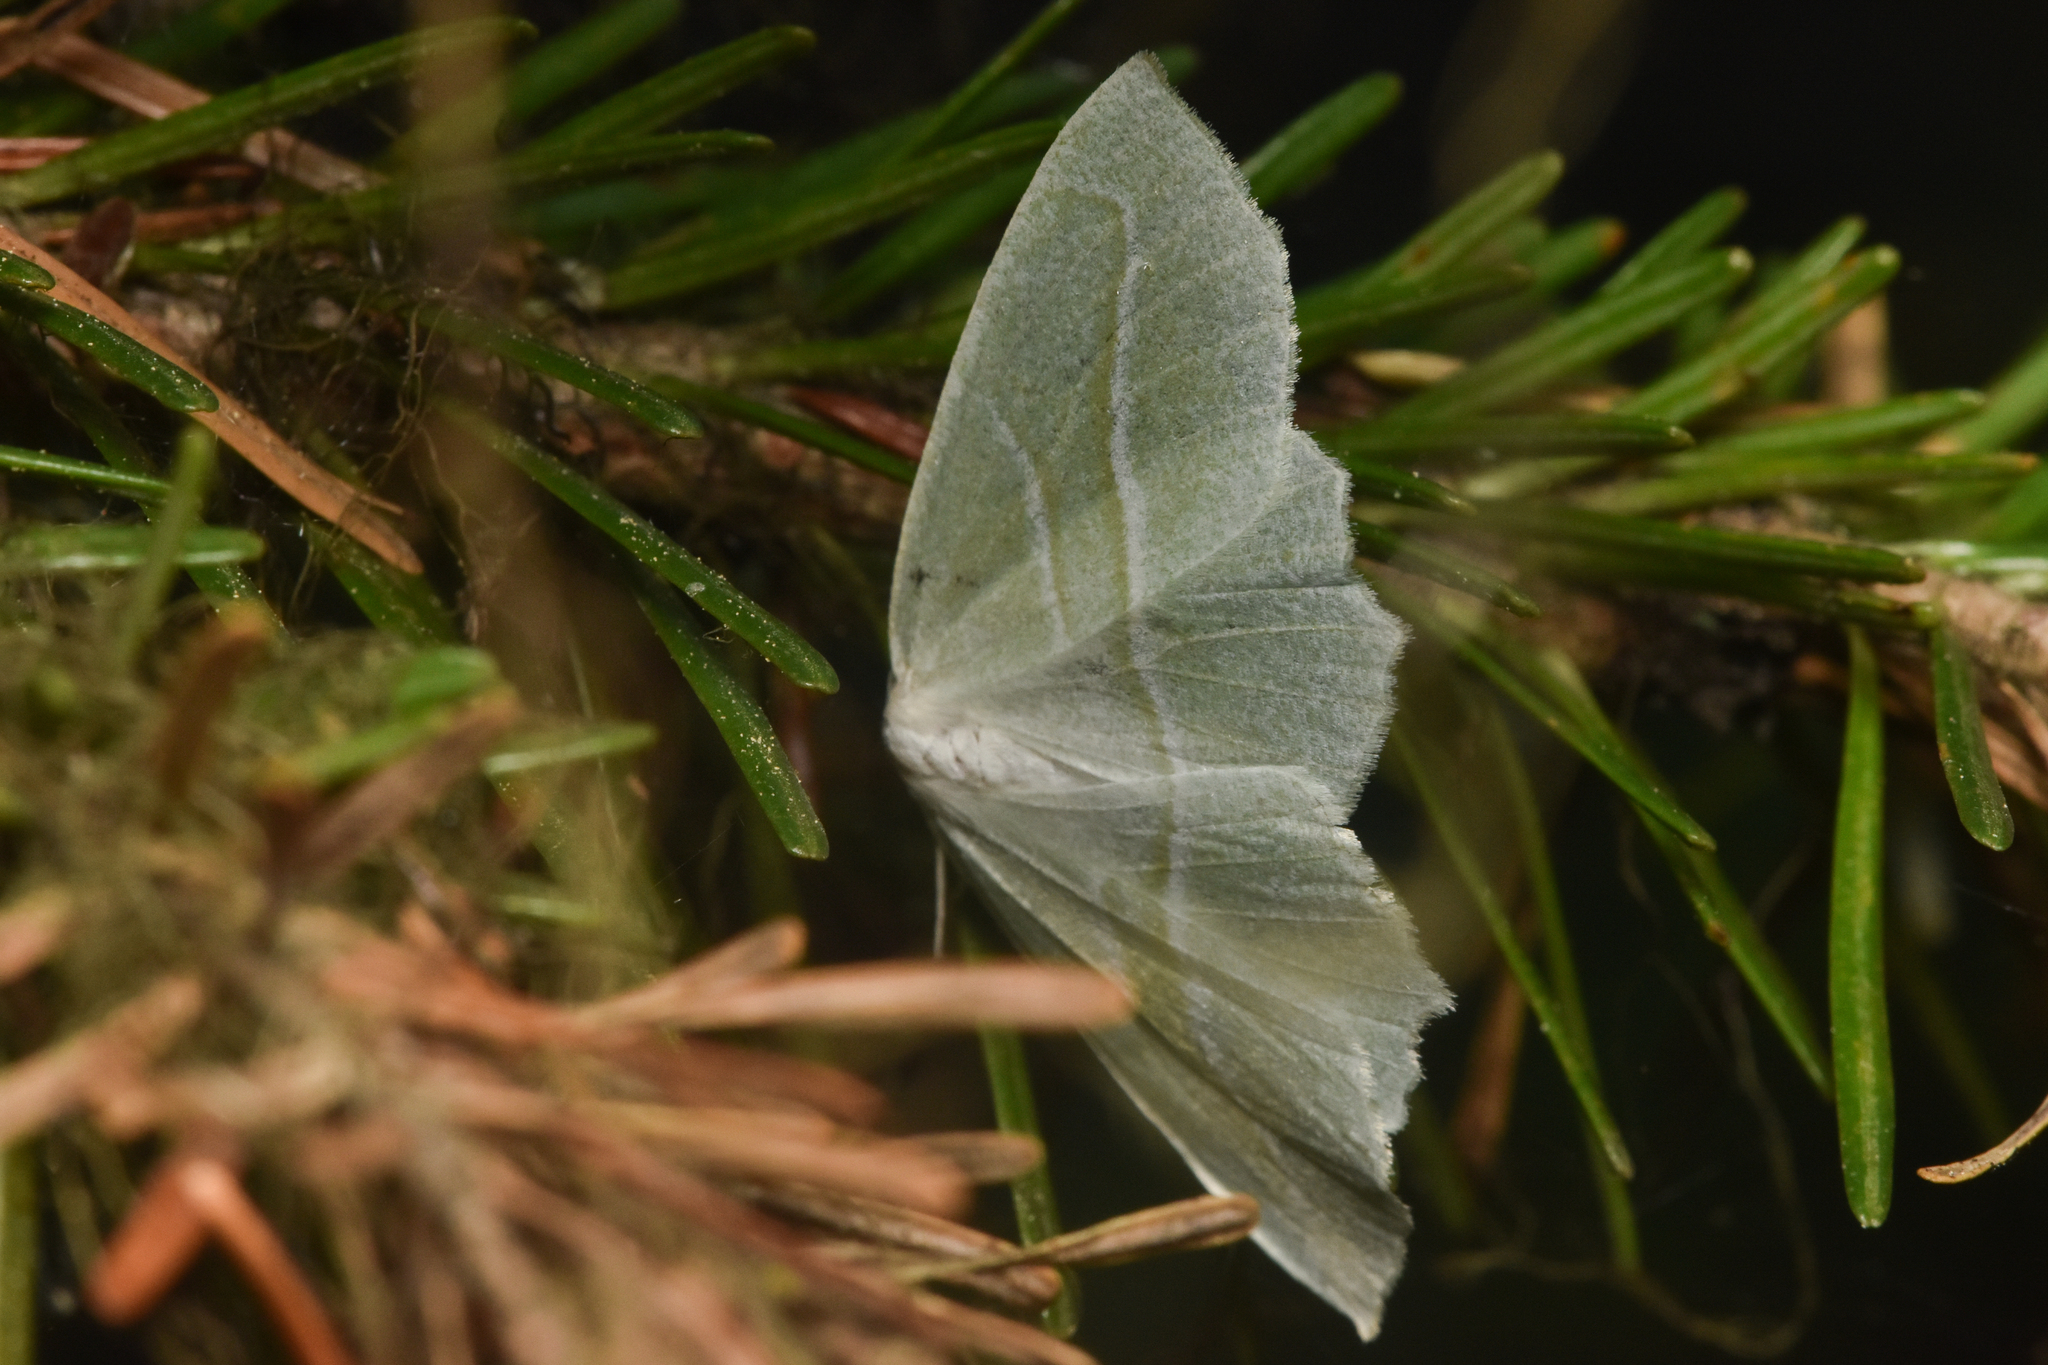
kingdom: Animalia
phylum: Arthropoda
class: Insecta
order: Lepidoptera
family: Geometridae
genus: Campaea
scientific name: Campaea perlata
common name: Fringed looper
